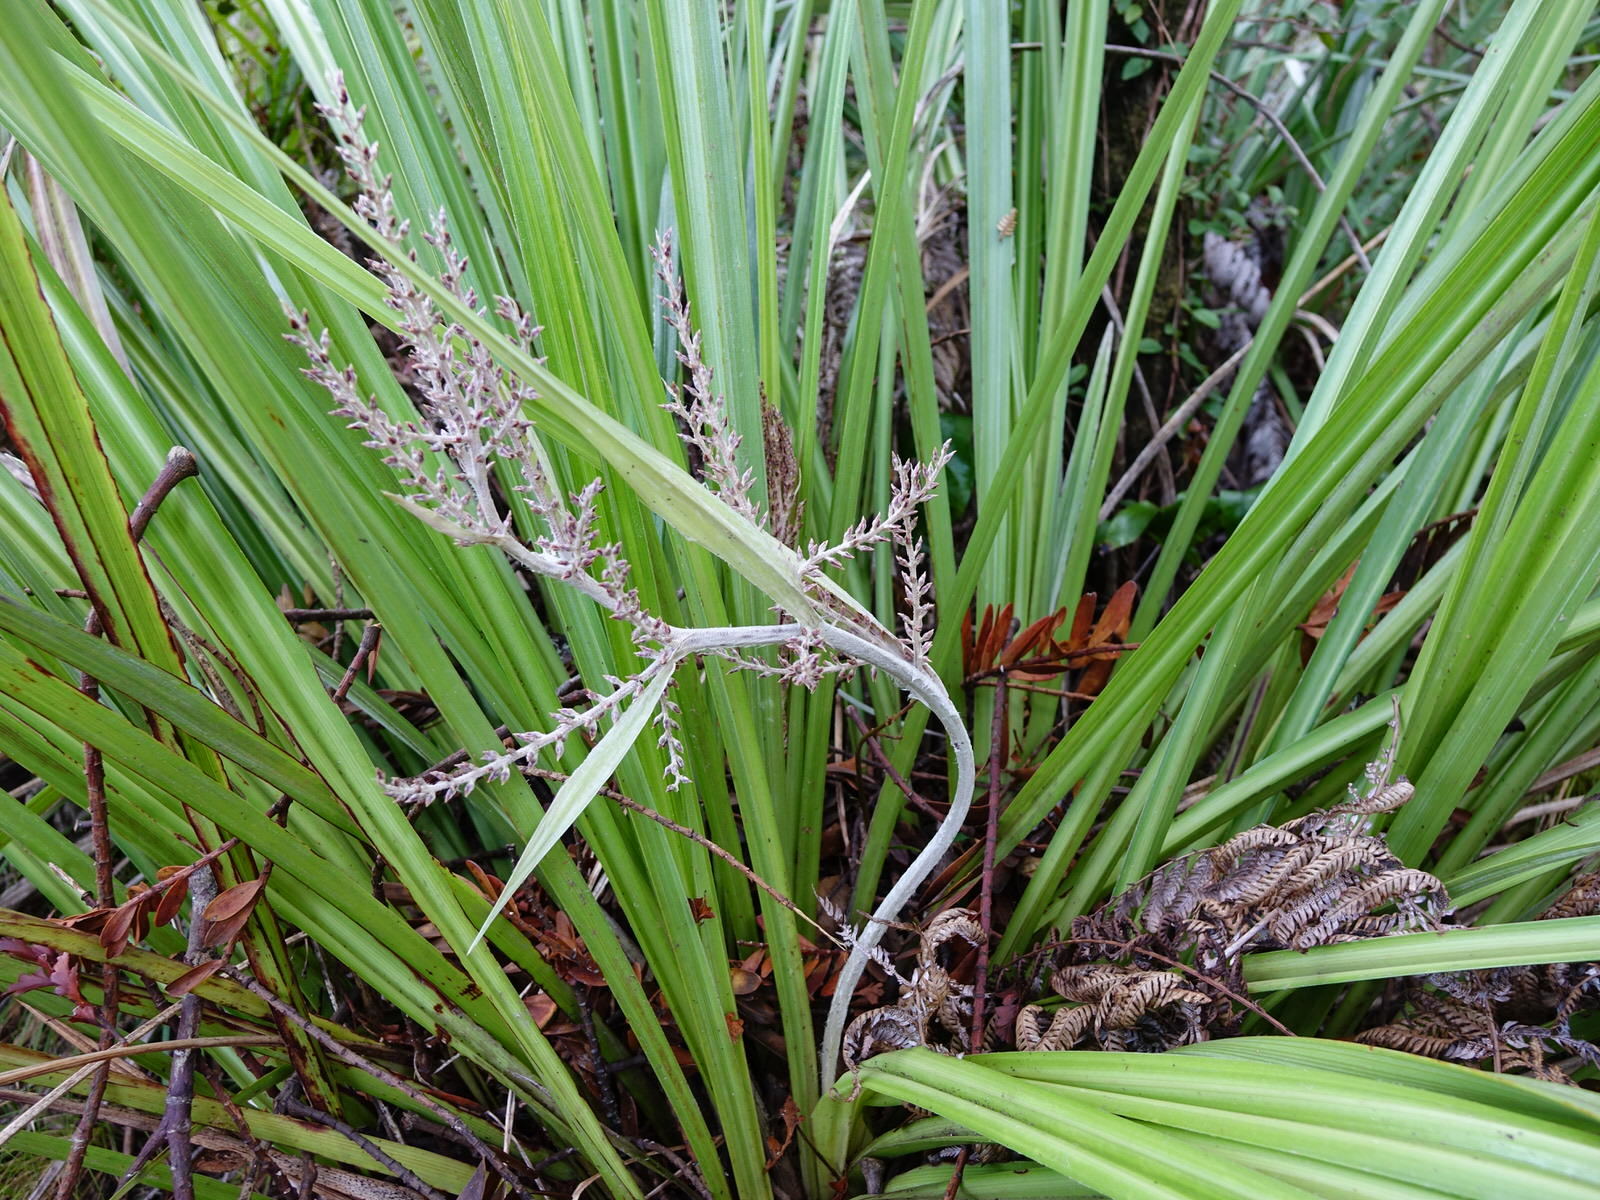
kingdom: Plantae
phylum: Tracheophyta
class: Liliopsida
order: Asparagales
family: Asteliaceae
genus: Astelia
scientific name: Astelia trinervia
